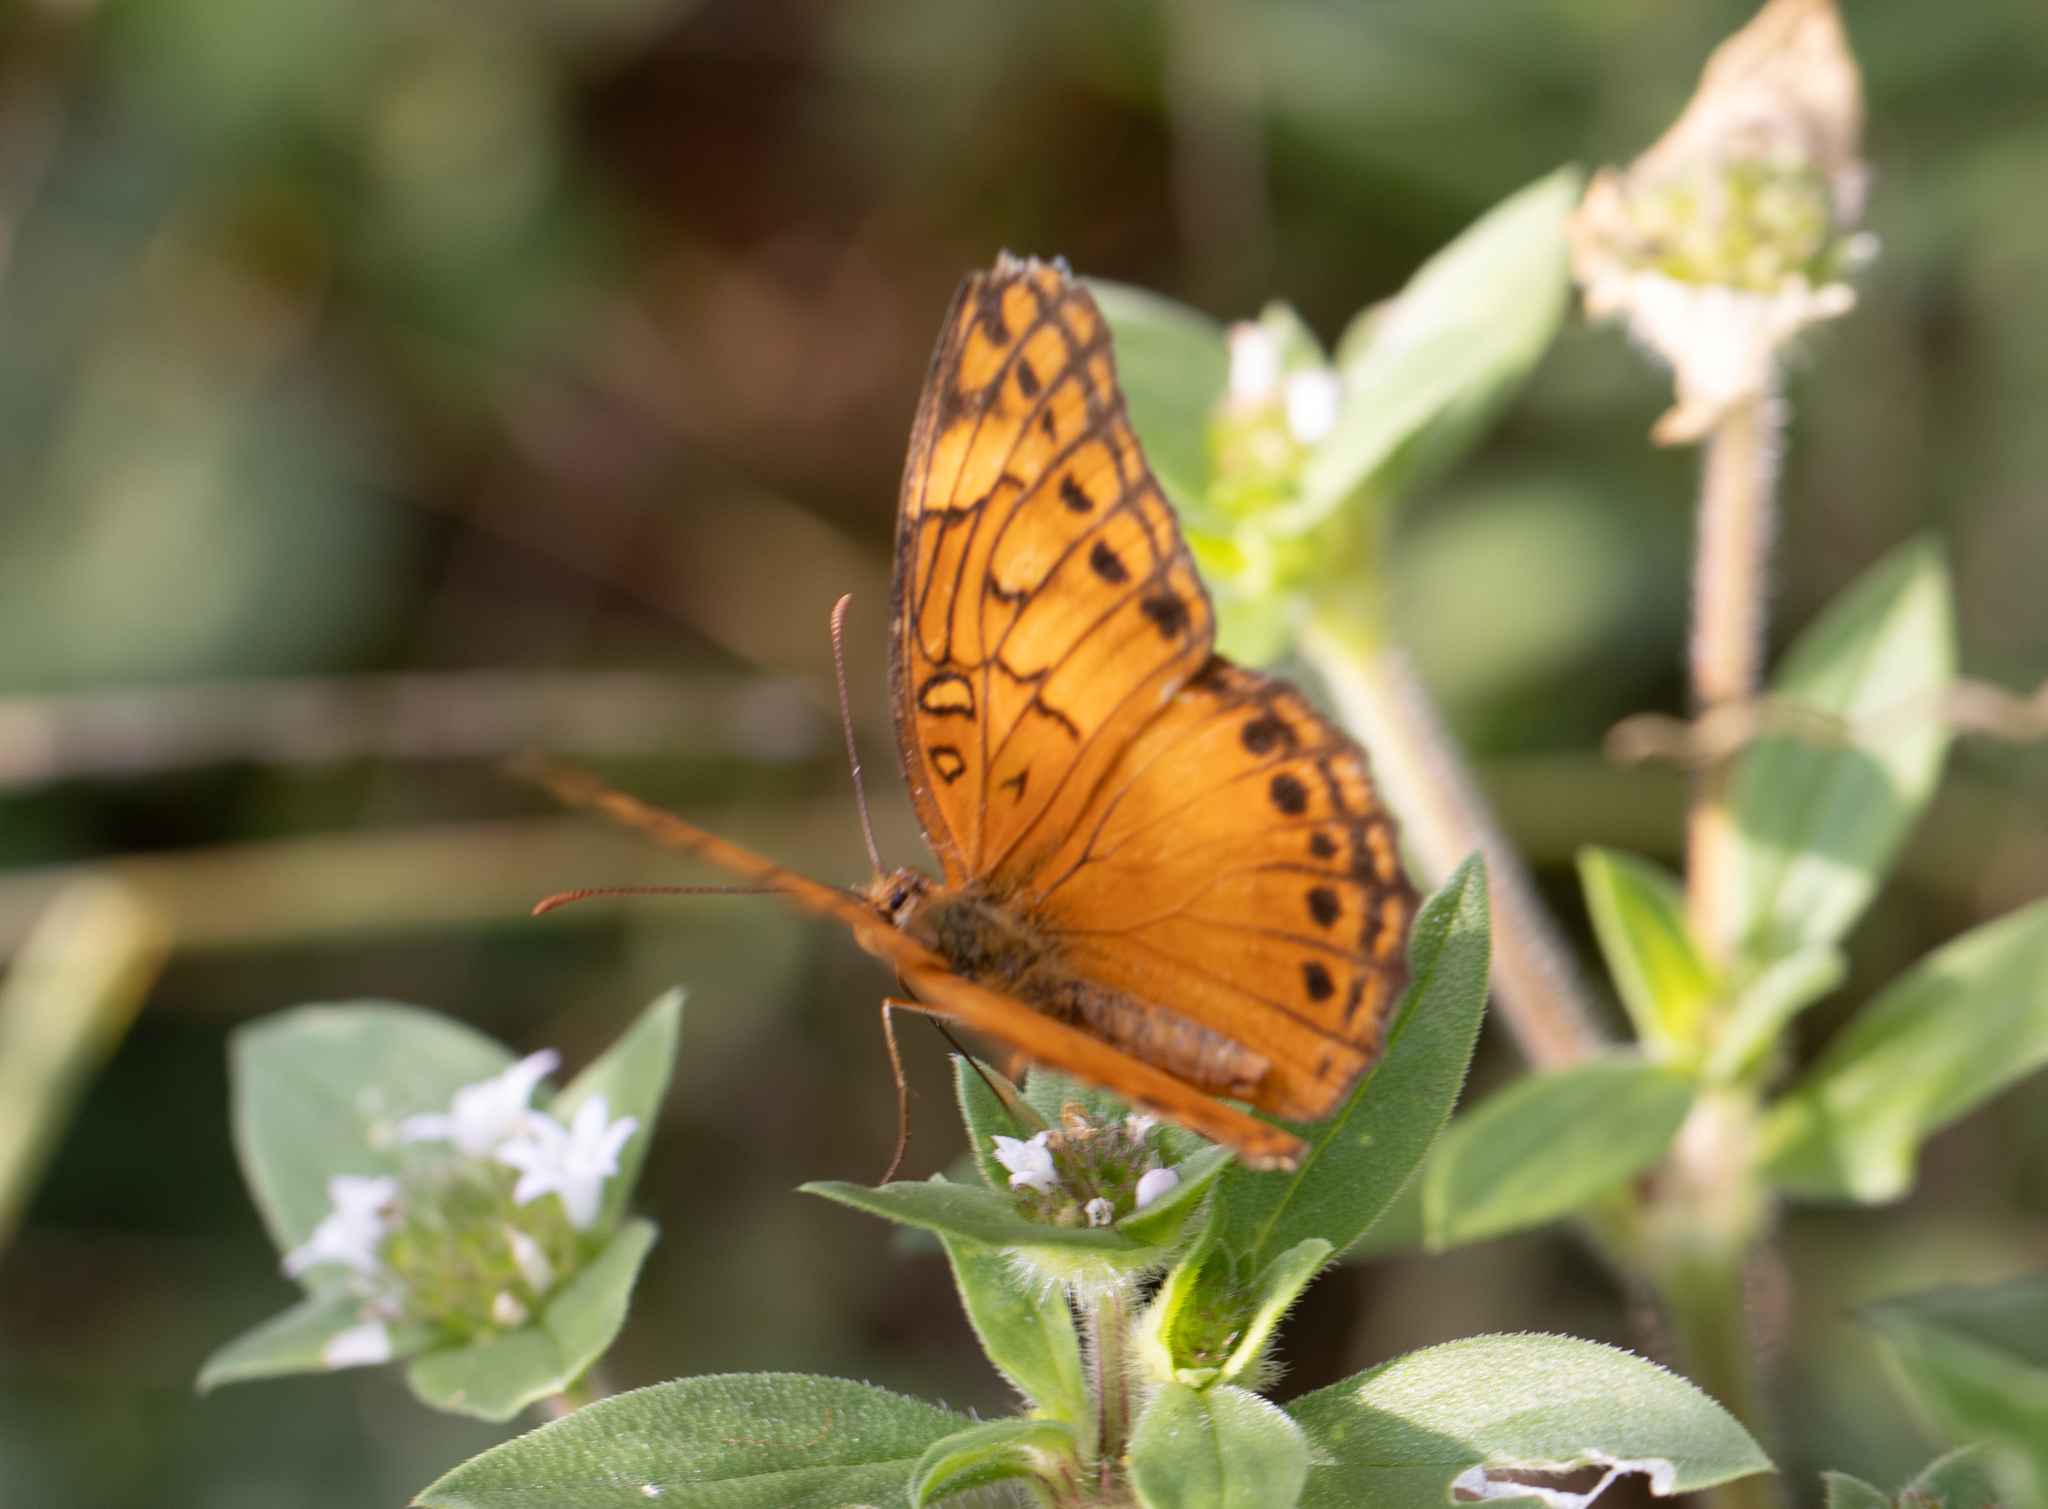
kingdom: Animalia
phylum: Arthropoda
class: Insecta
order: Lepidoptera
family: Nymphalidae
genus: Euptoieta
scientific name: Euptoieta hegesia
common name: Mexican fritillary
